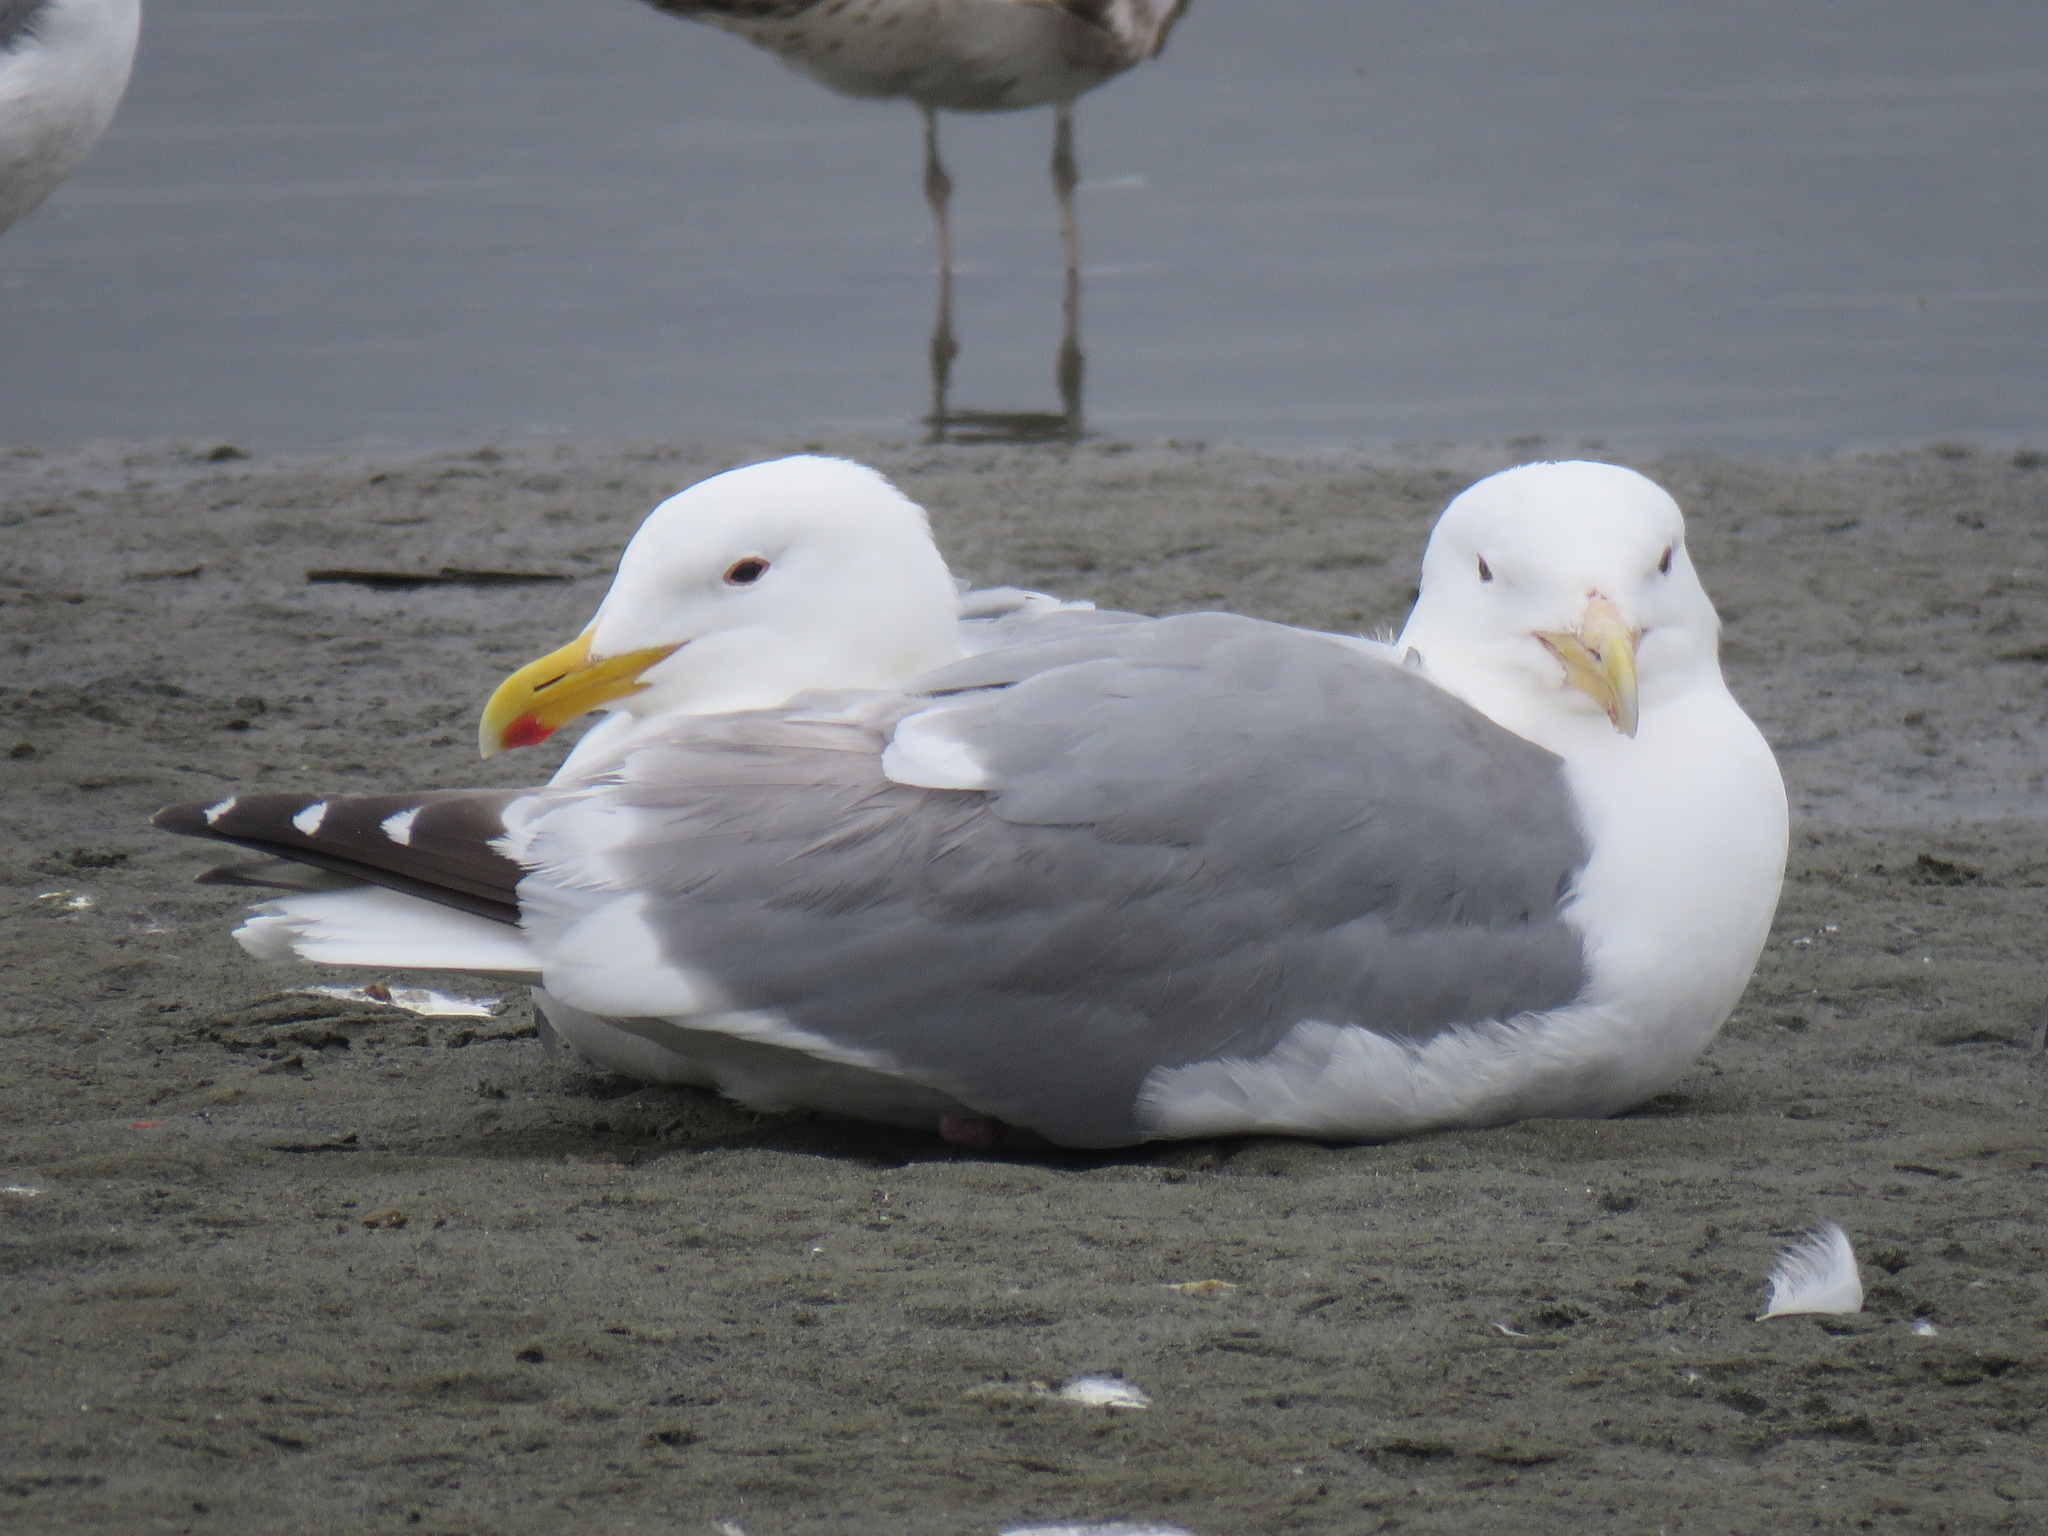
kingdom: Animalia
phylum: Chordata
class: Aves
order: Charadriiformes
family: Laridae
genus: Larus
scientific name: Larus
